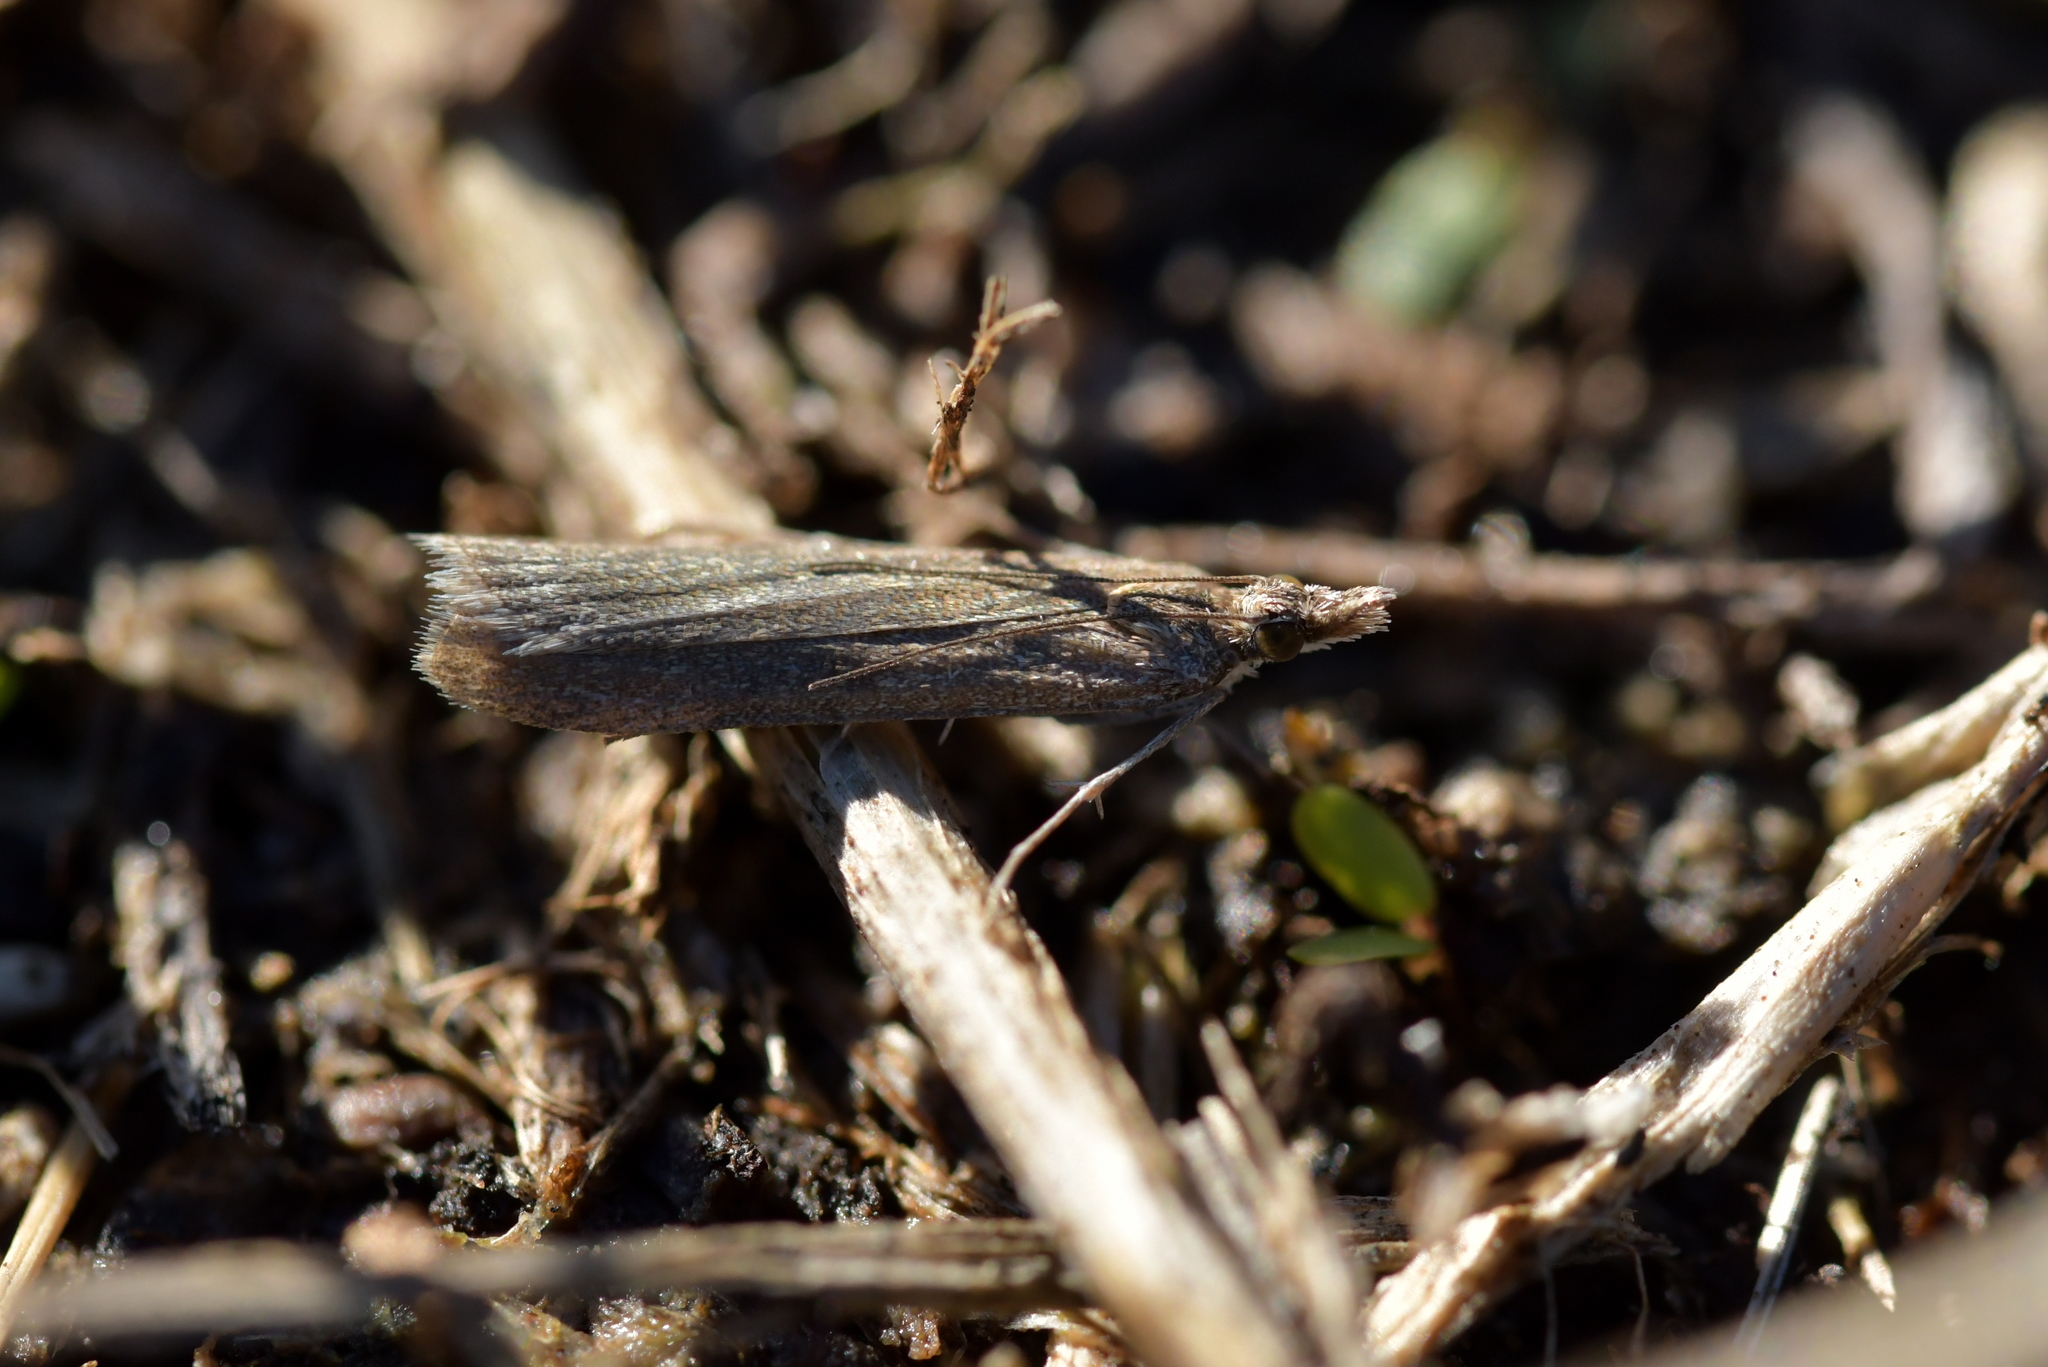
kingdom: Animalia
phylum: Arthropoda
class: Insecta
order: Lepidoptera
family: Crambidae
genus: Eudonia
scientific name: Eudonia leptalea
